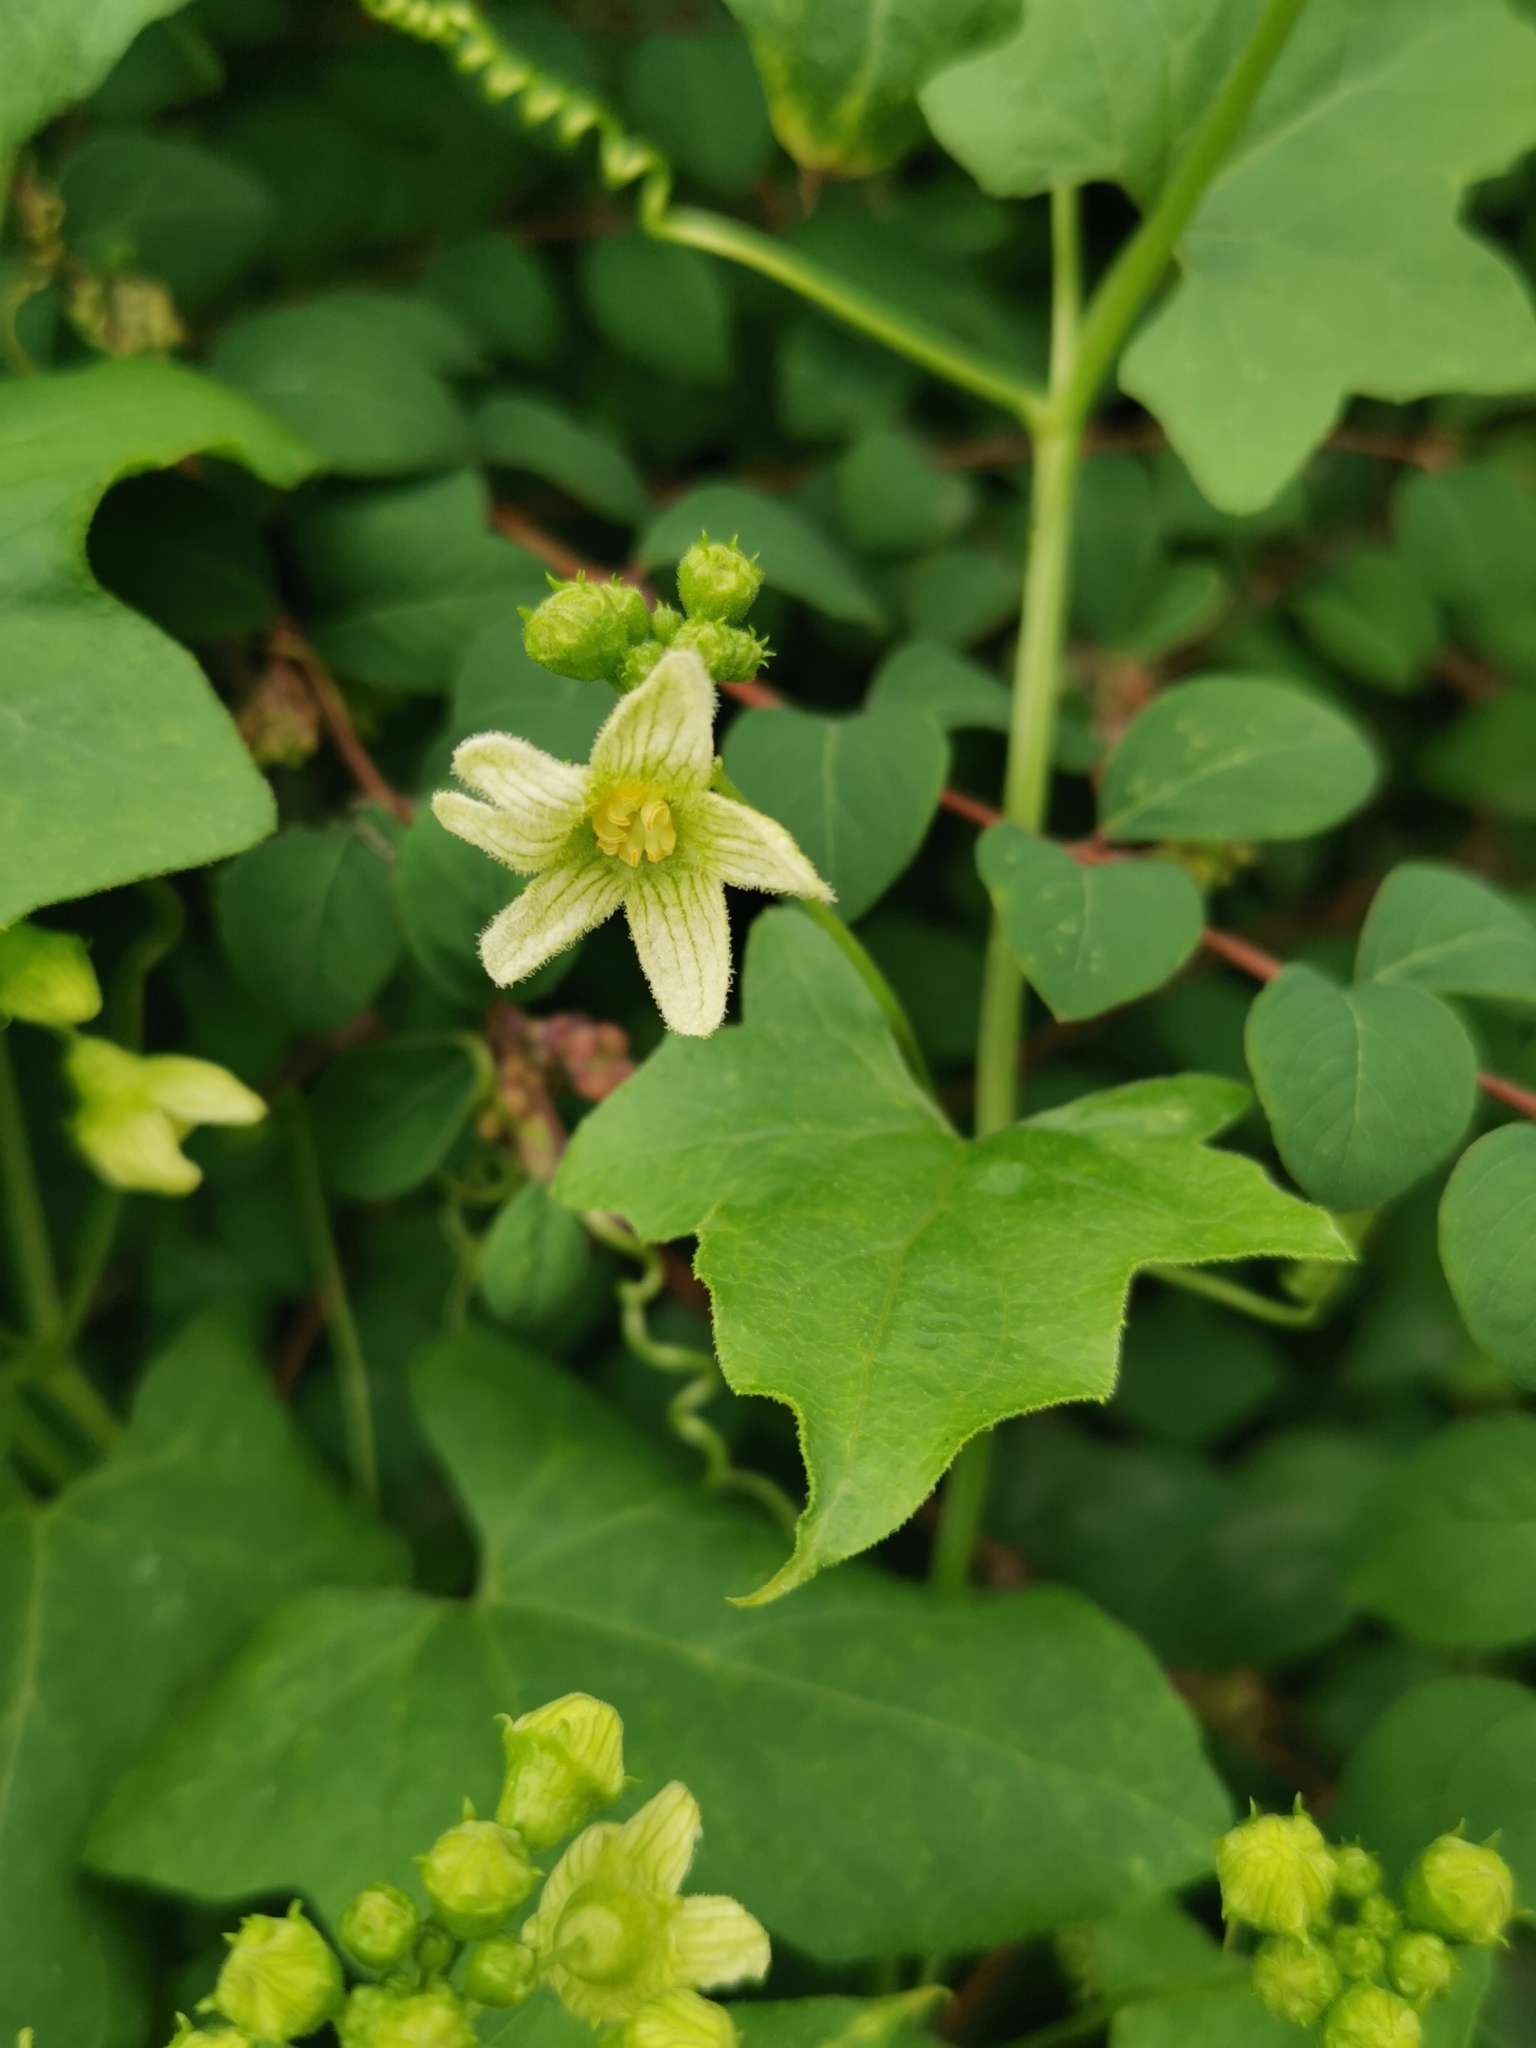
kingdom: Plantae
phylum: Tracheophyta
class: Magnoliopsida
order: Cucurbitales
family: Cucurbitaceae
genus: Bryonia
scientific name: Bryonia cretica
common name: Cretan bryony
